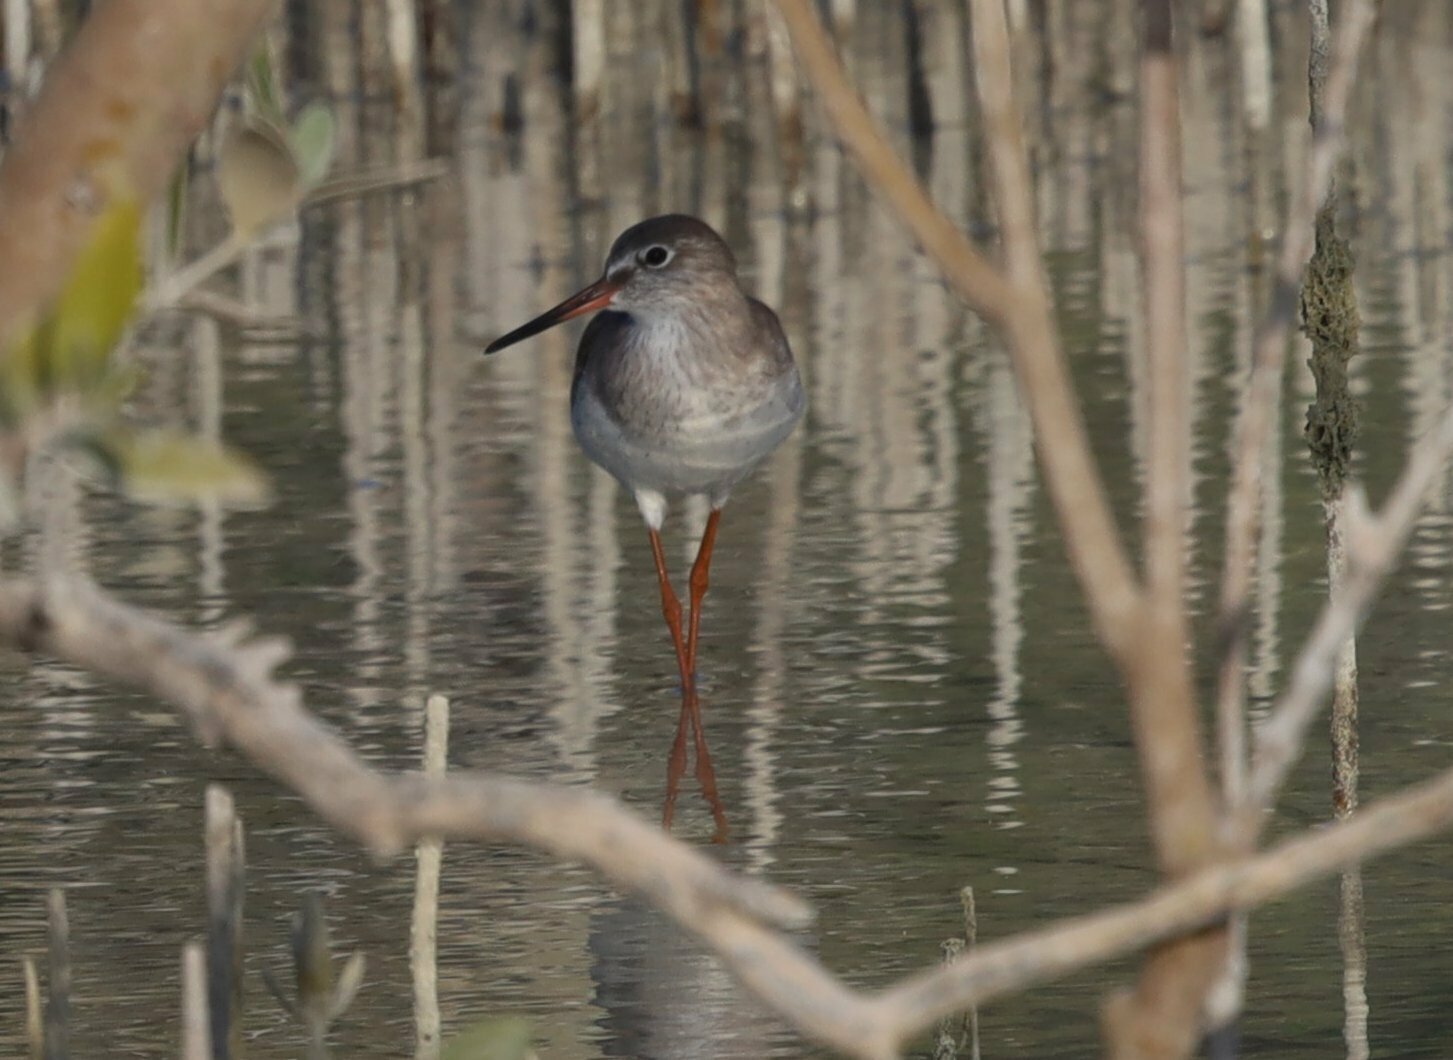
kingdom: Animalia
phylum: Chordata
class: Aves
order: Charadriiformes
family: Scolopacidae
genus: Tringa
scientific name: Tringa totanus
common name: Common redshank
